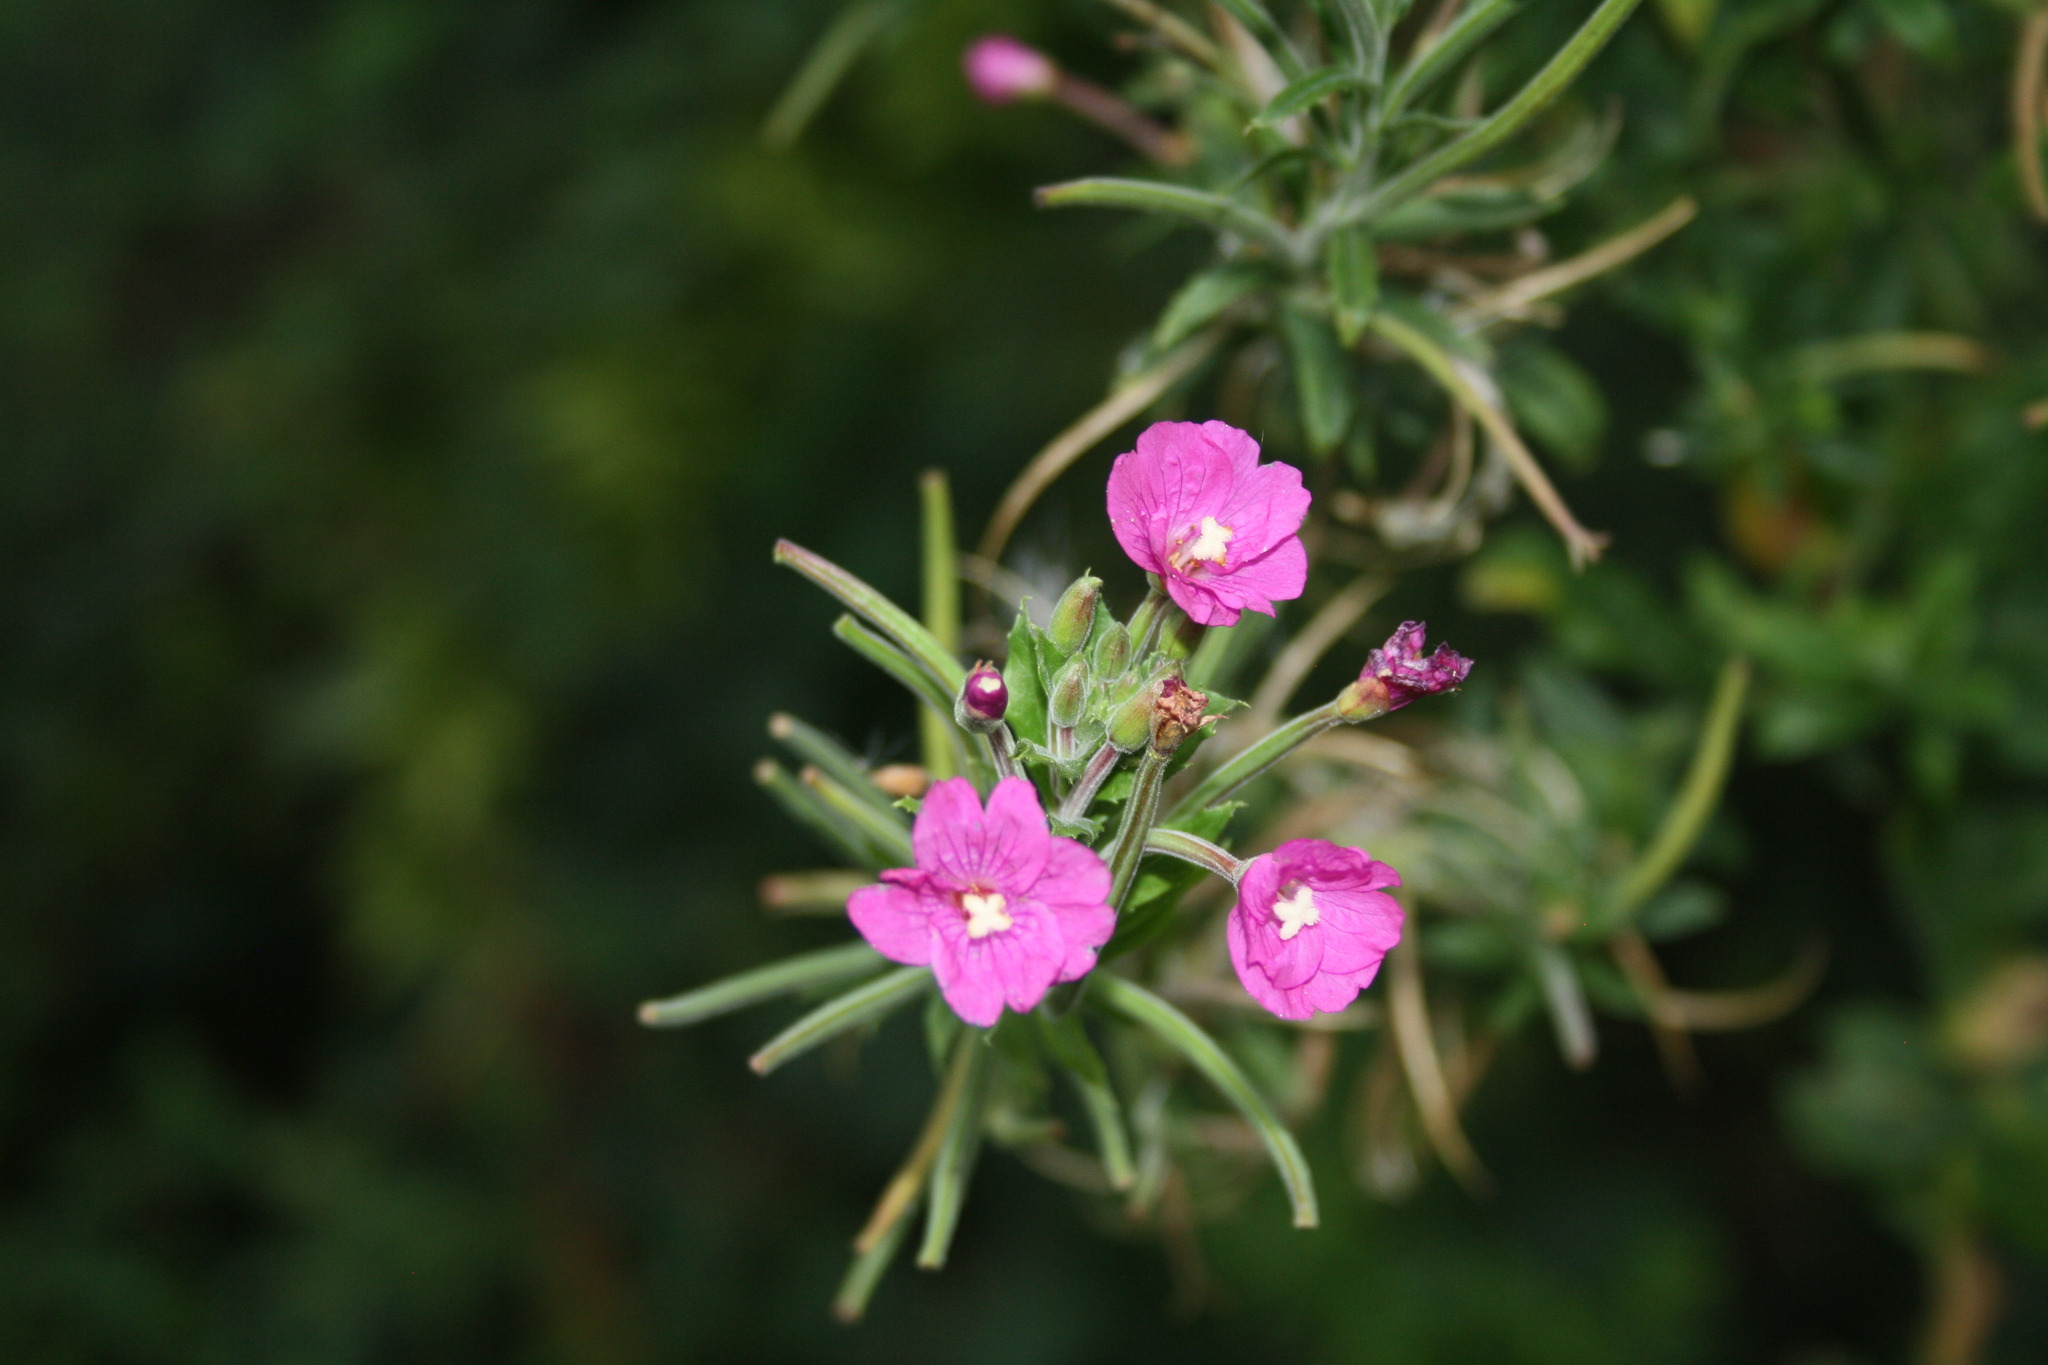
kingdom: Plantae
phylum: Tracheophyta
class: Magnoliopsida
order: Myrtales
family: Onagraceae
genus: Epilobium
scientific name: Epilobium hirsutum
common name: Great willowherb
